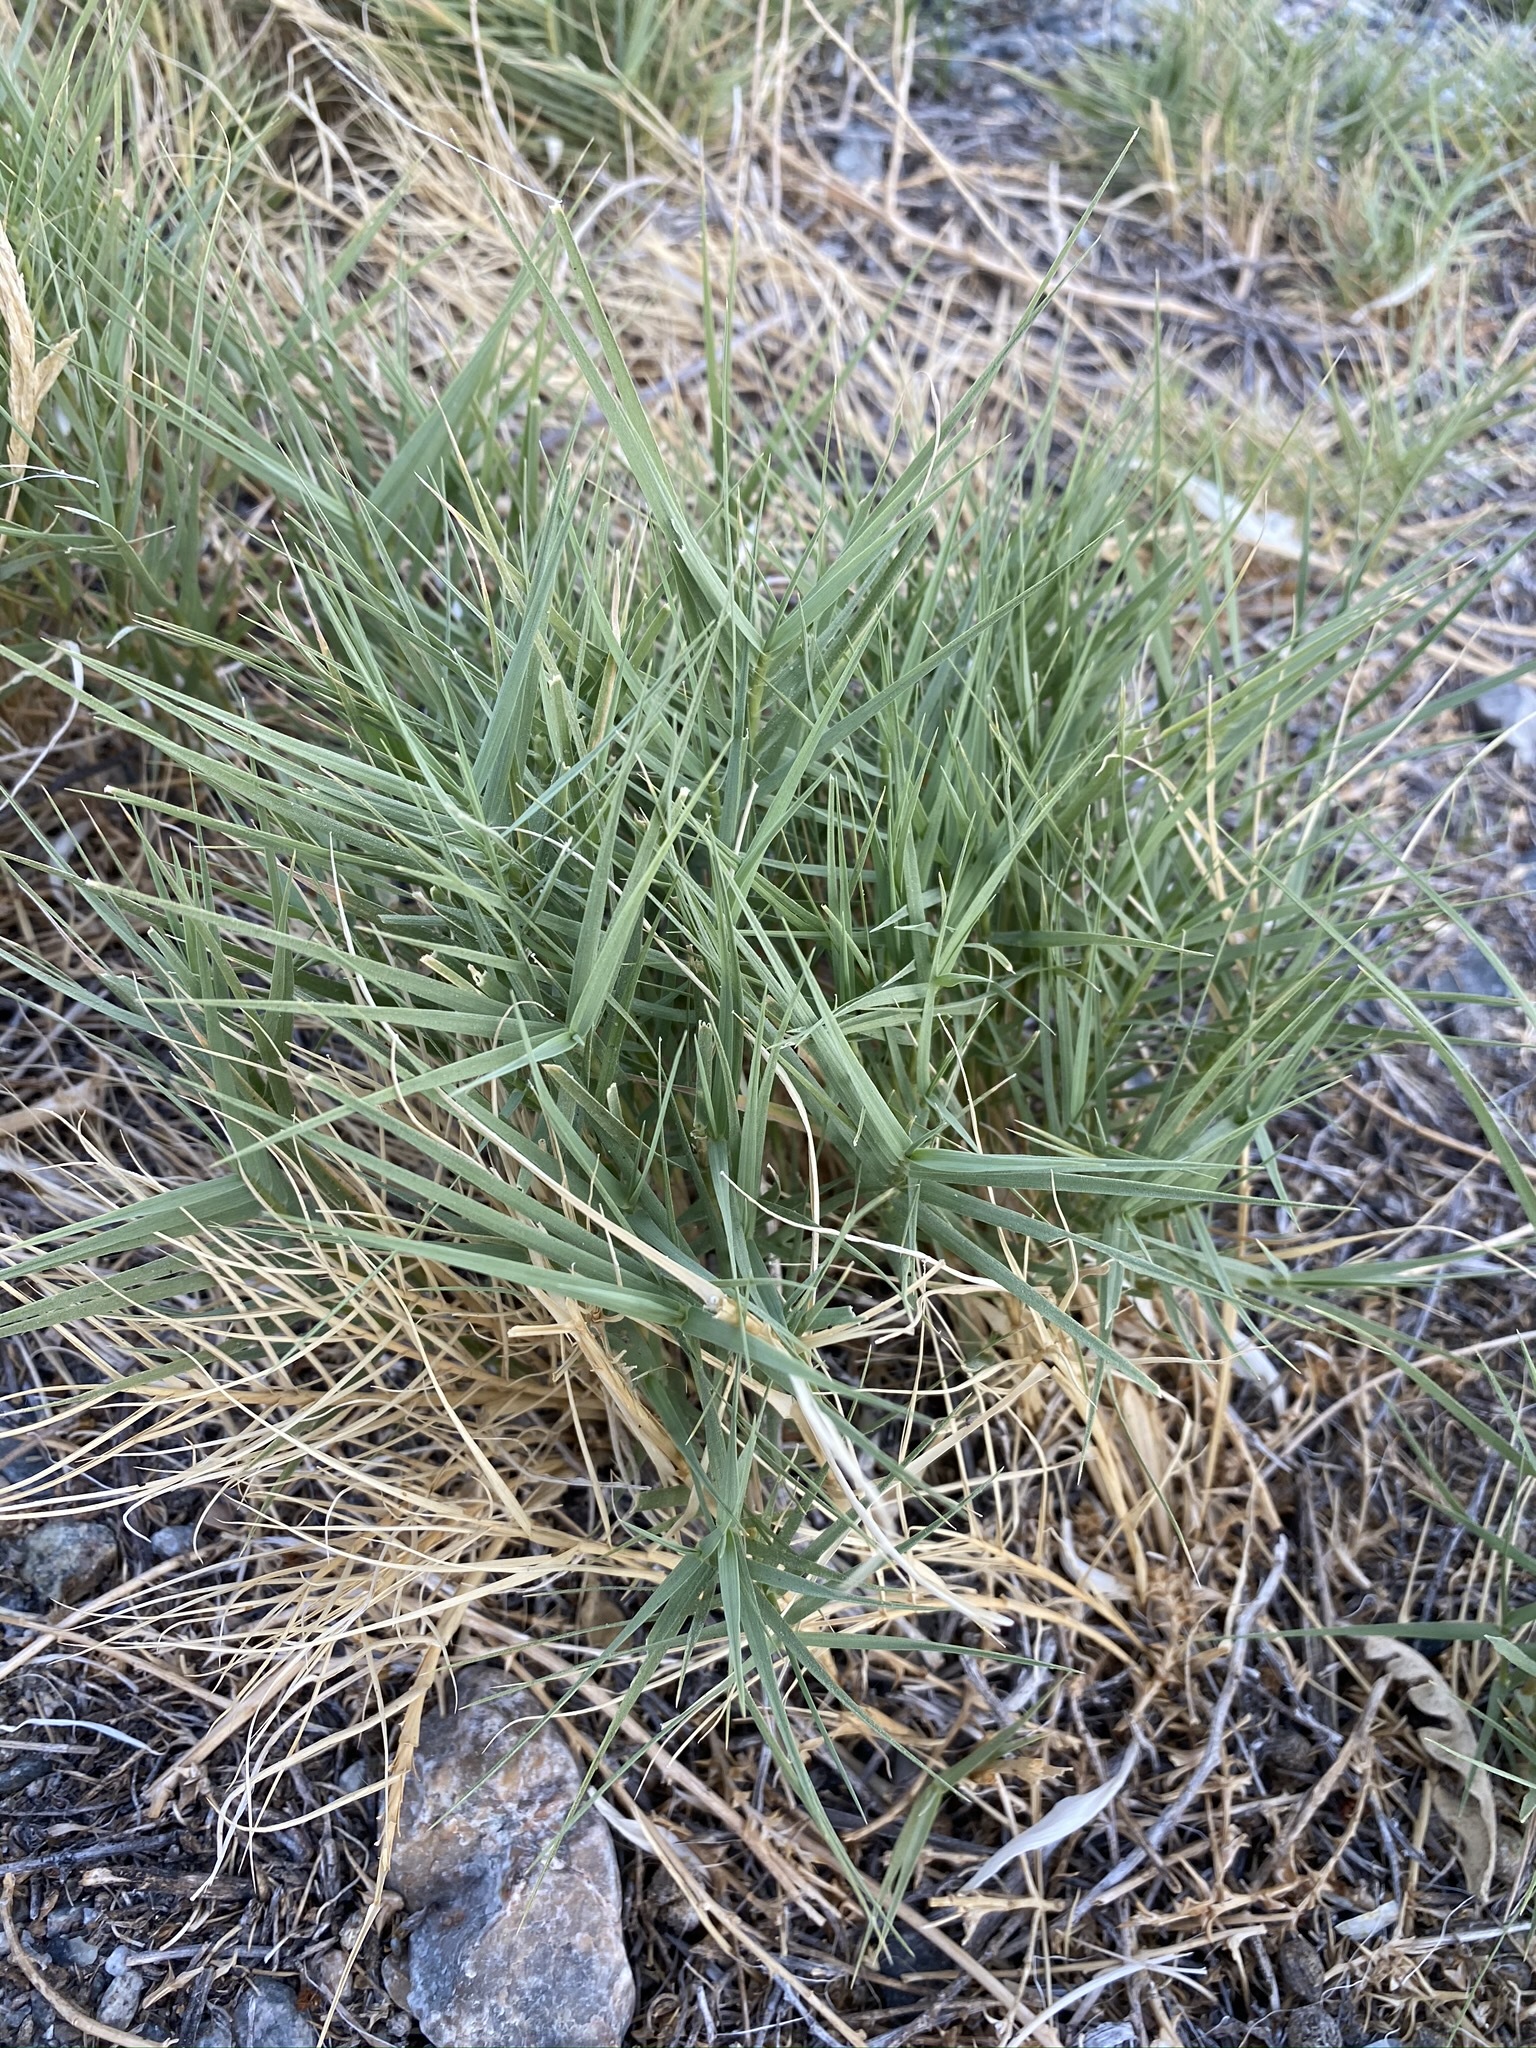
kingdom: Plantae
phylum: Tracheophyta
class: Liliopsida
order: Poales
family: Poaceae
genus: Distichlis
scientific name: Distichlis spicata
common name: Saltgrass
